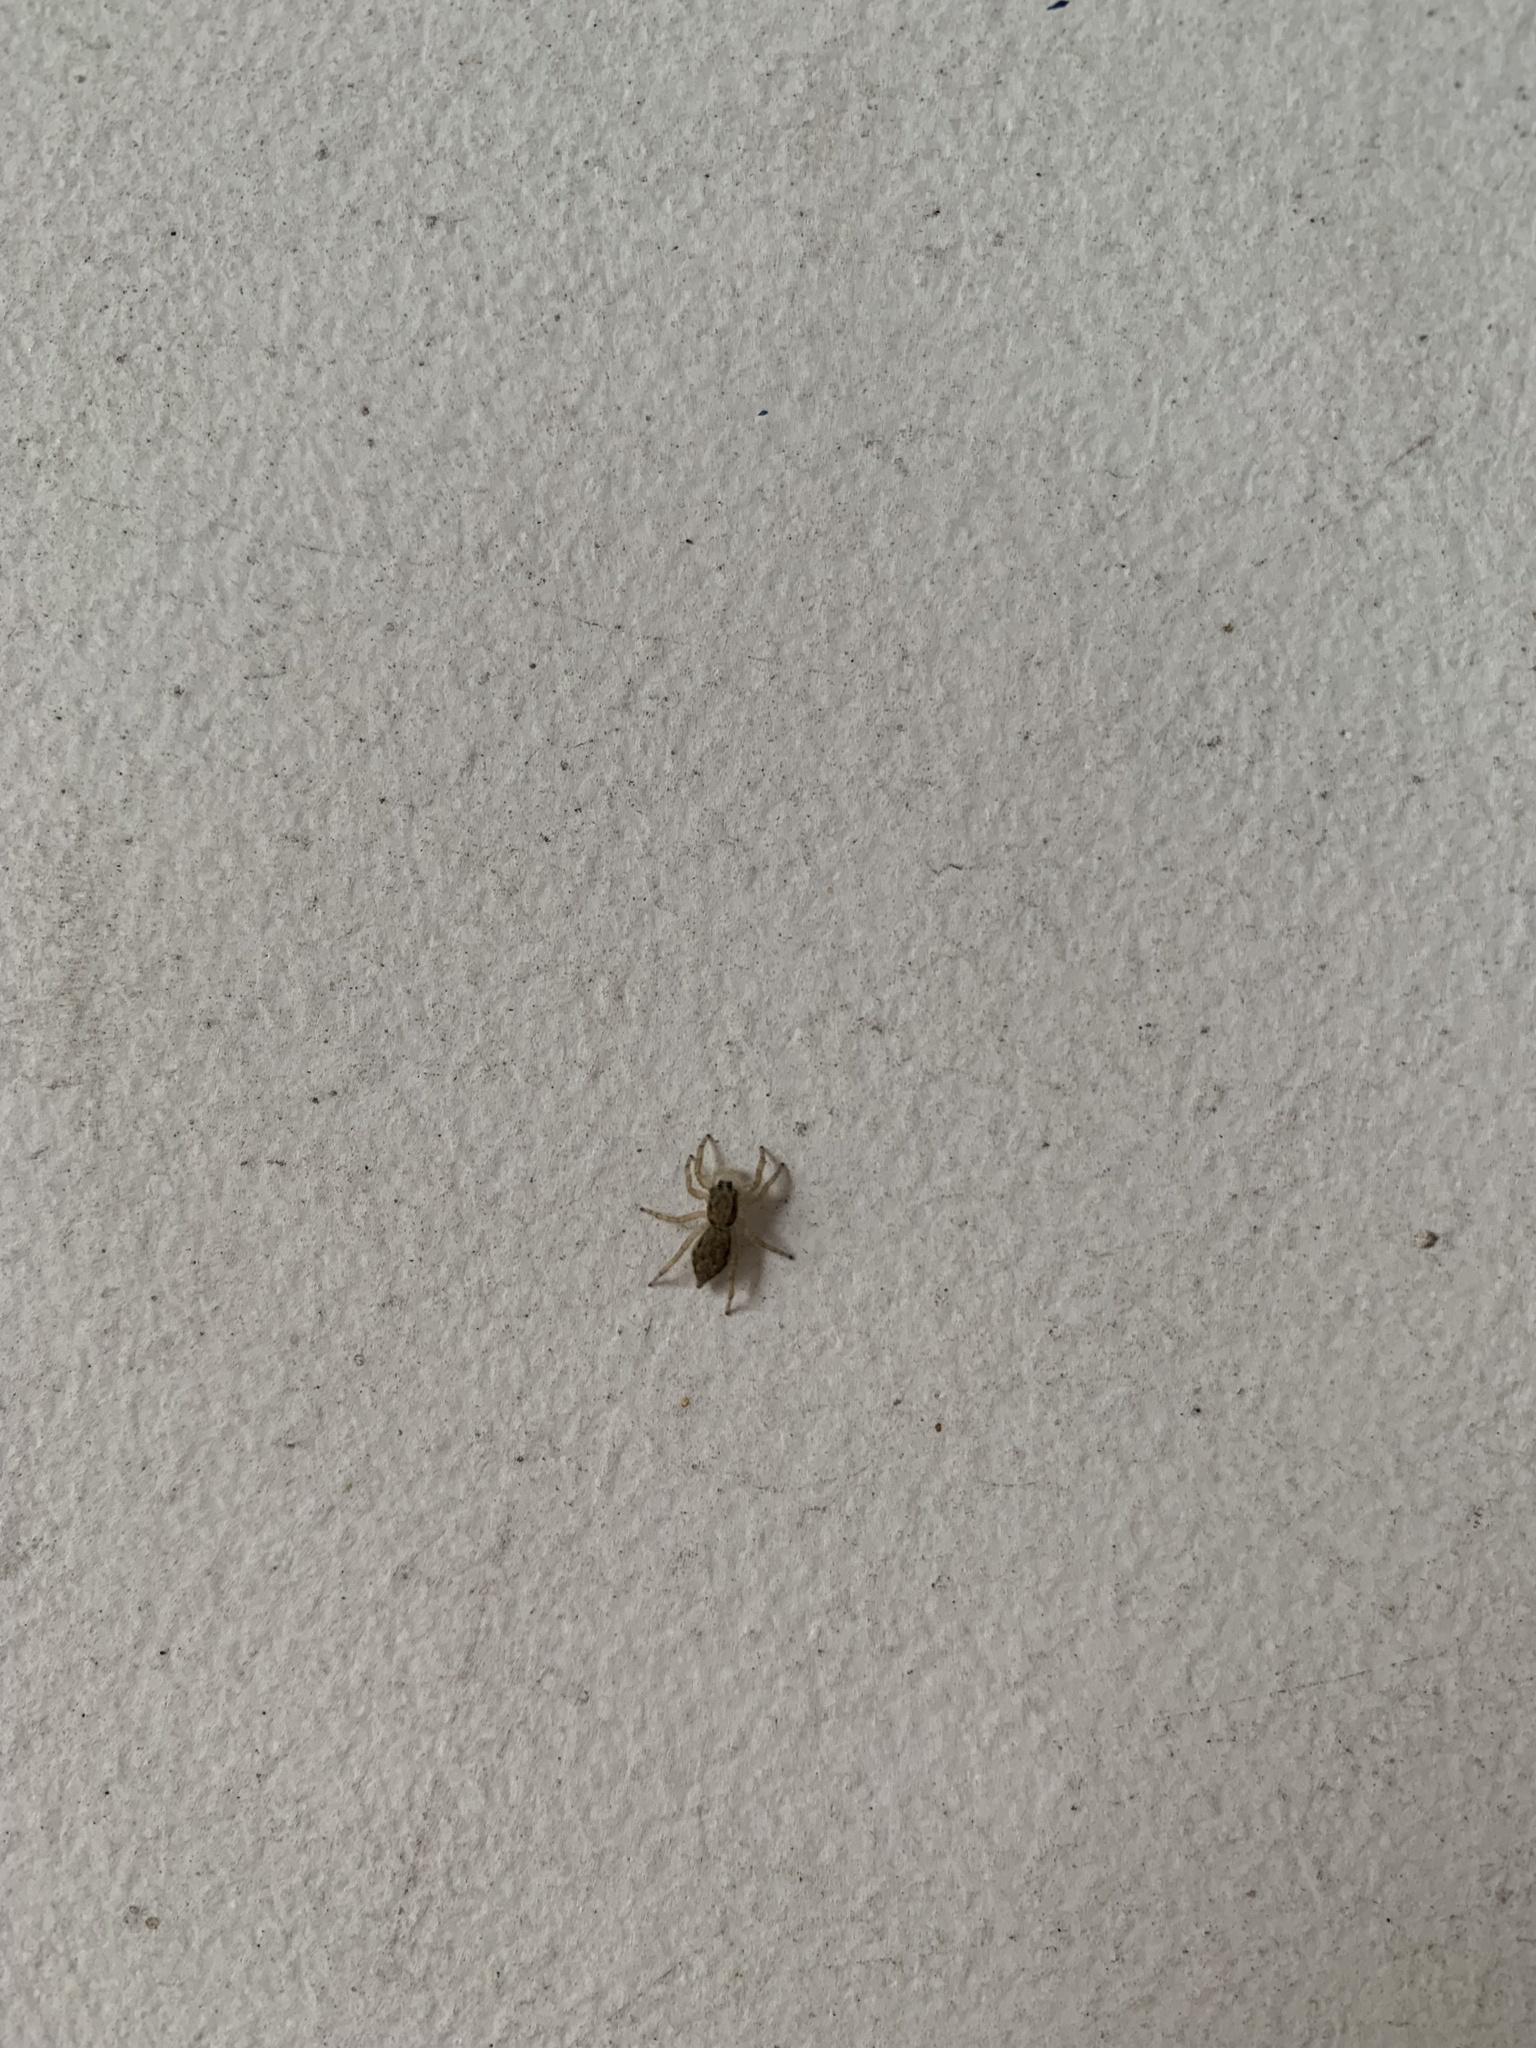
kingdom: Animalia
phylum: Arthropoda
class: Arachnida
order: Araneae
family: Salticidae
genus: Menemerus
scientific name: Menemerus bivittatus
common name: Gray wall jumper
